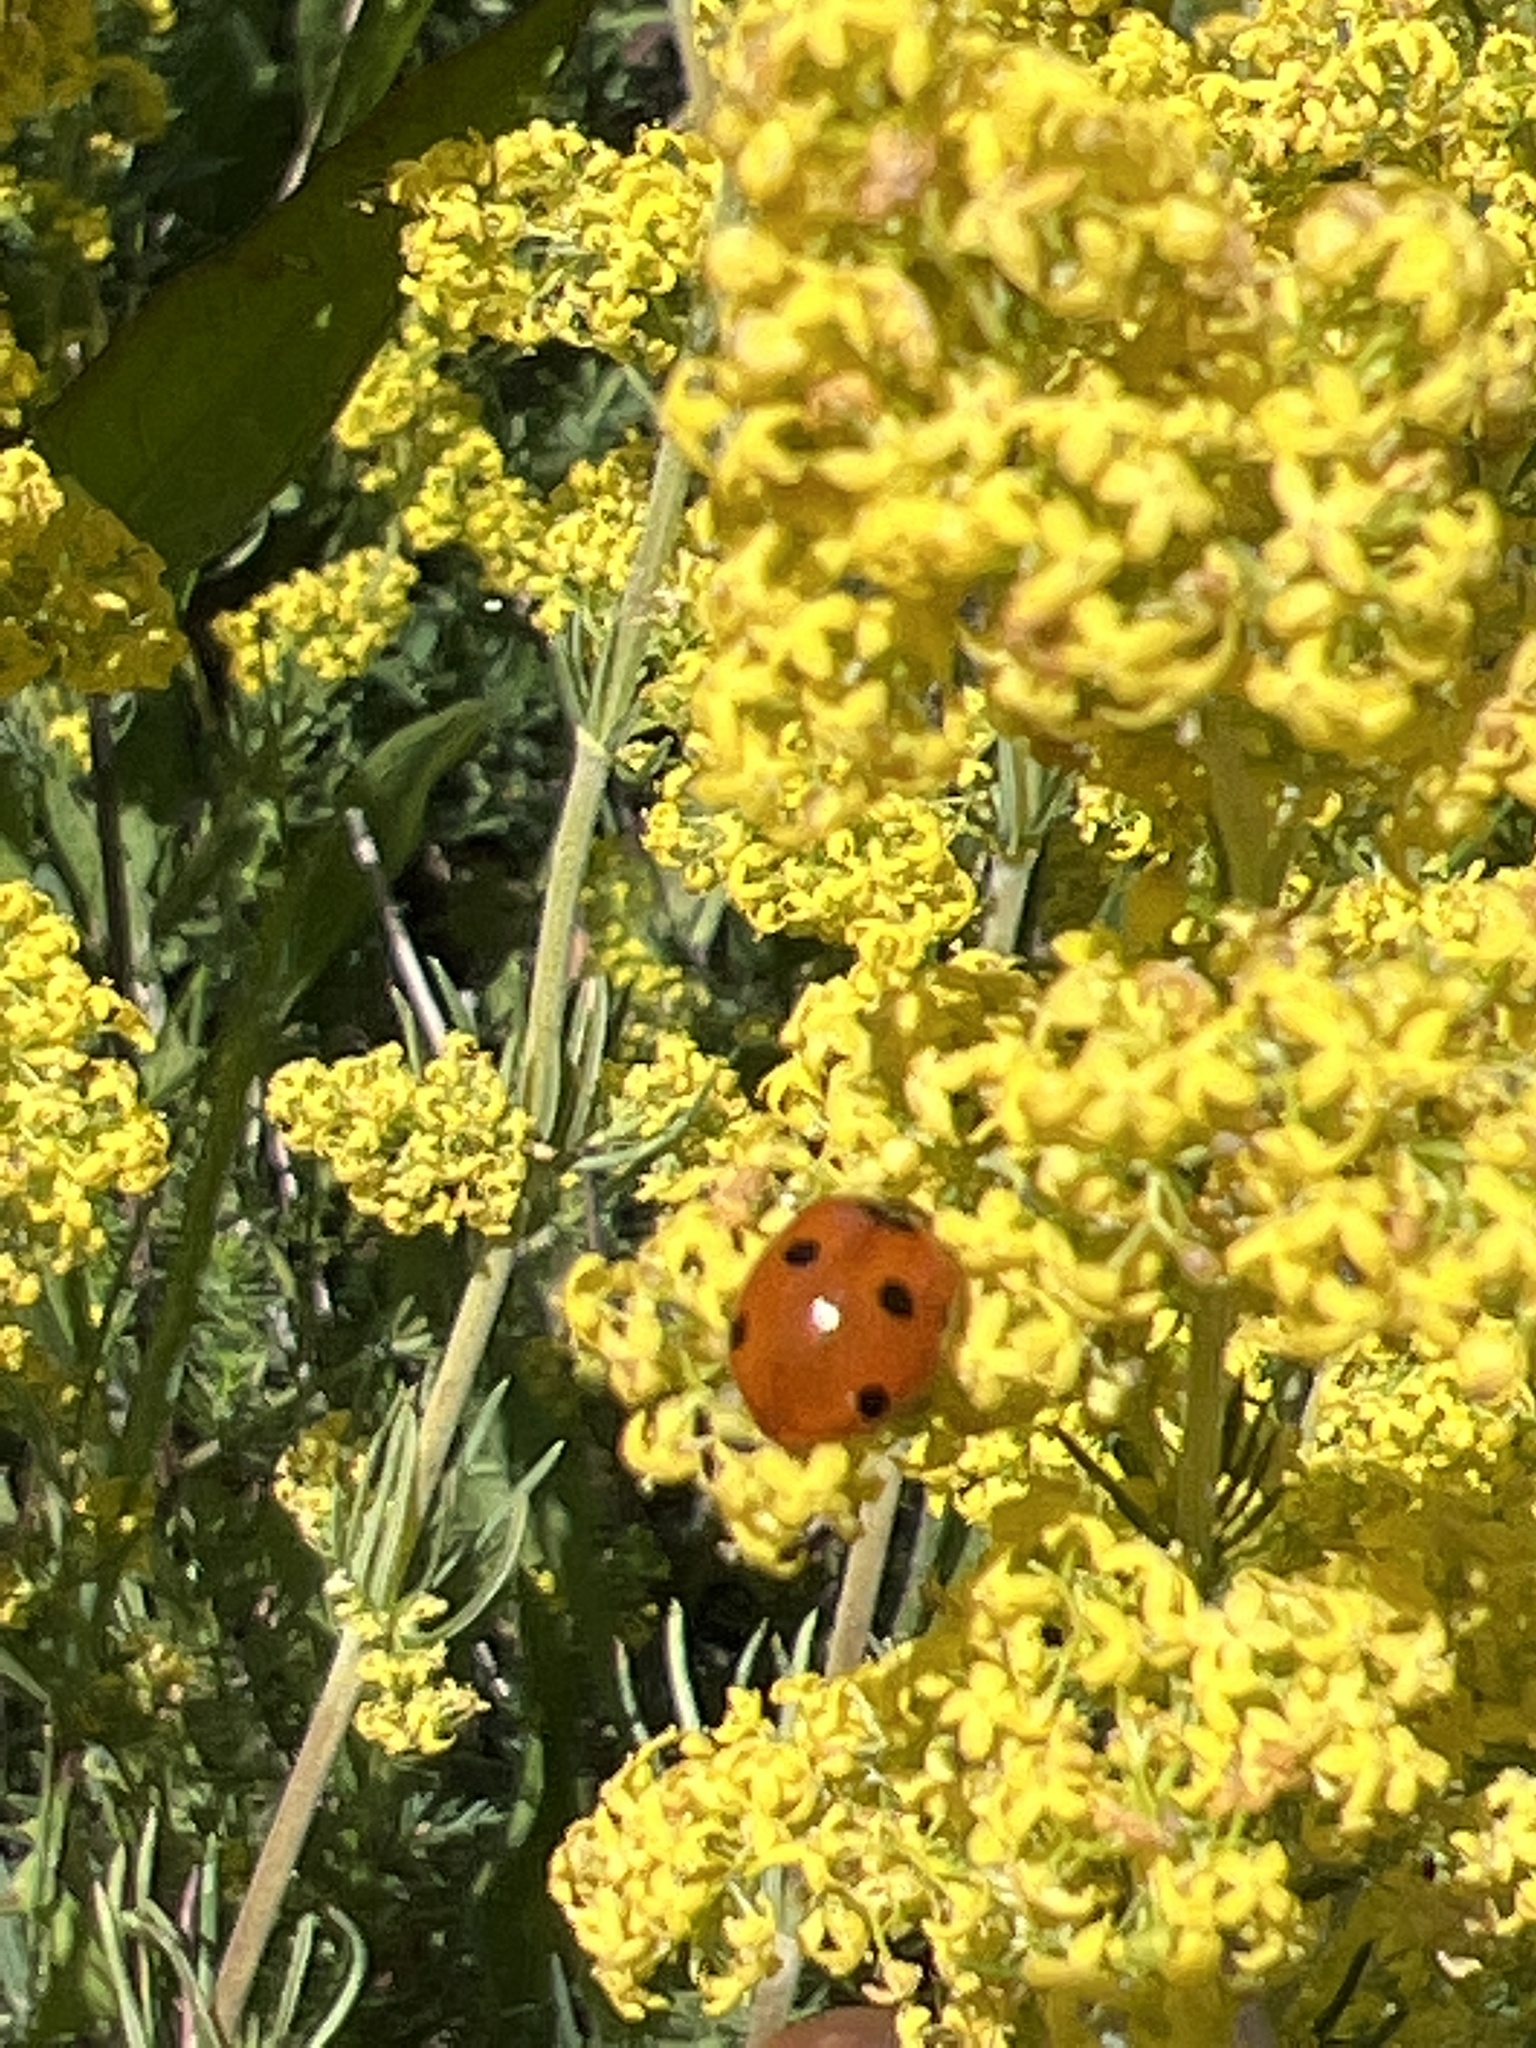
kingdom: Animalia
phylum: Arthropoda
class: Insecta
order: Coleoptera
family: Coccinellidae
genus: Coccinella
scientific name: Coccinella septempunctata
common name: Sevenspotted lady beetle
